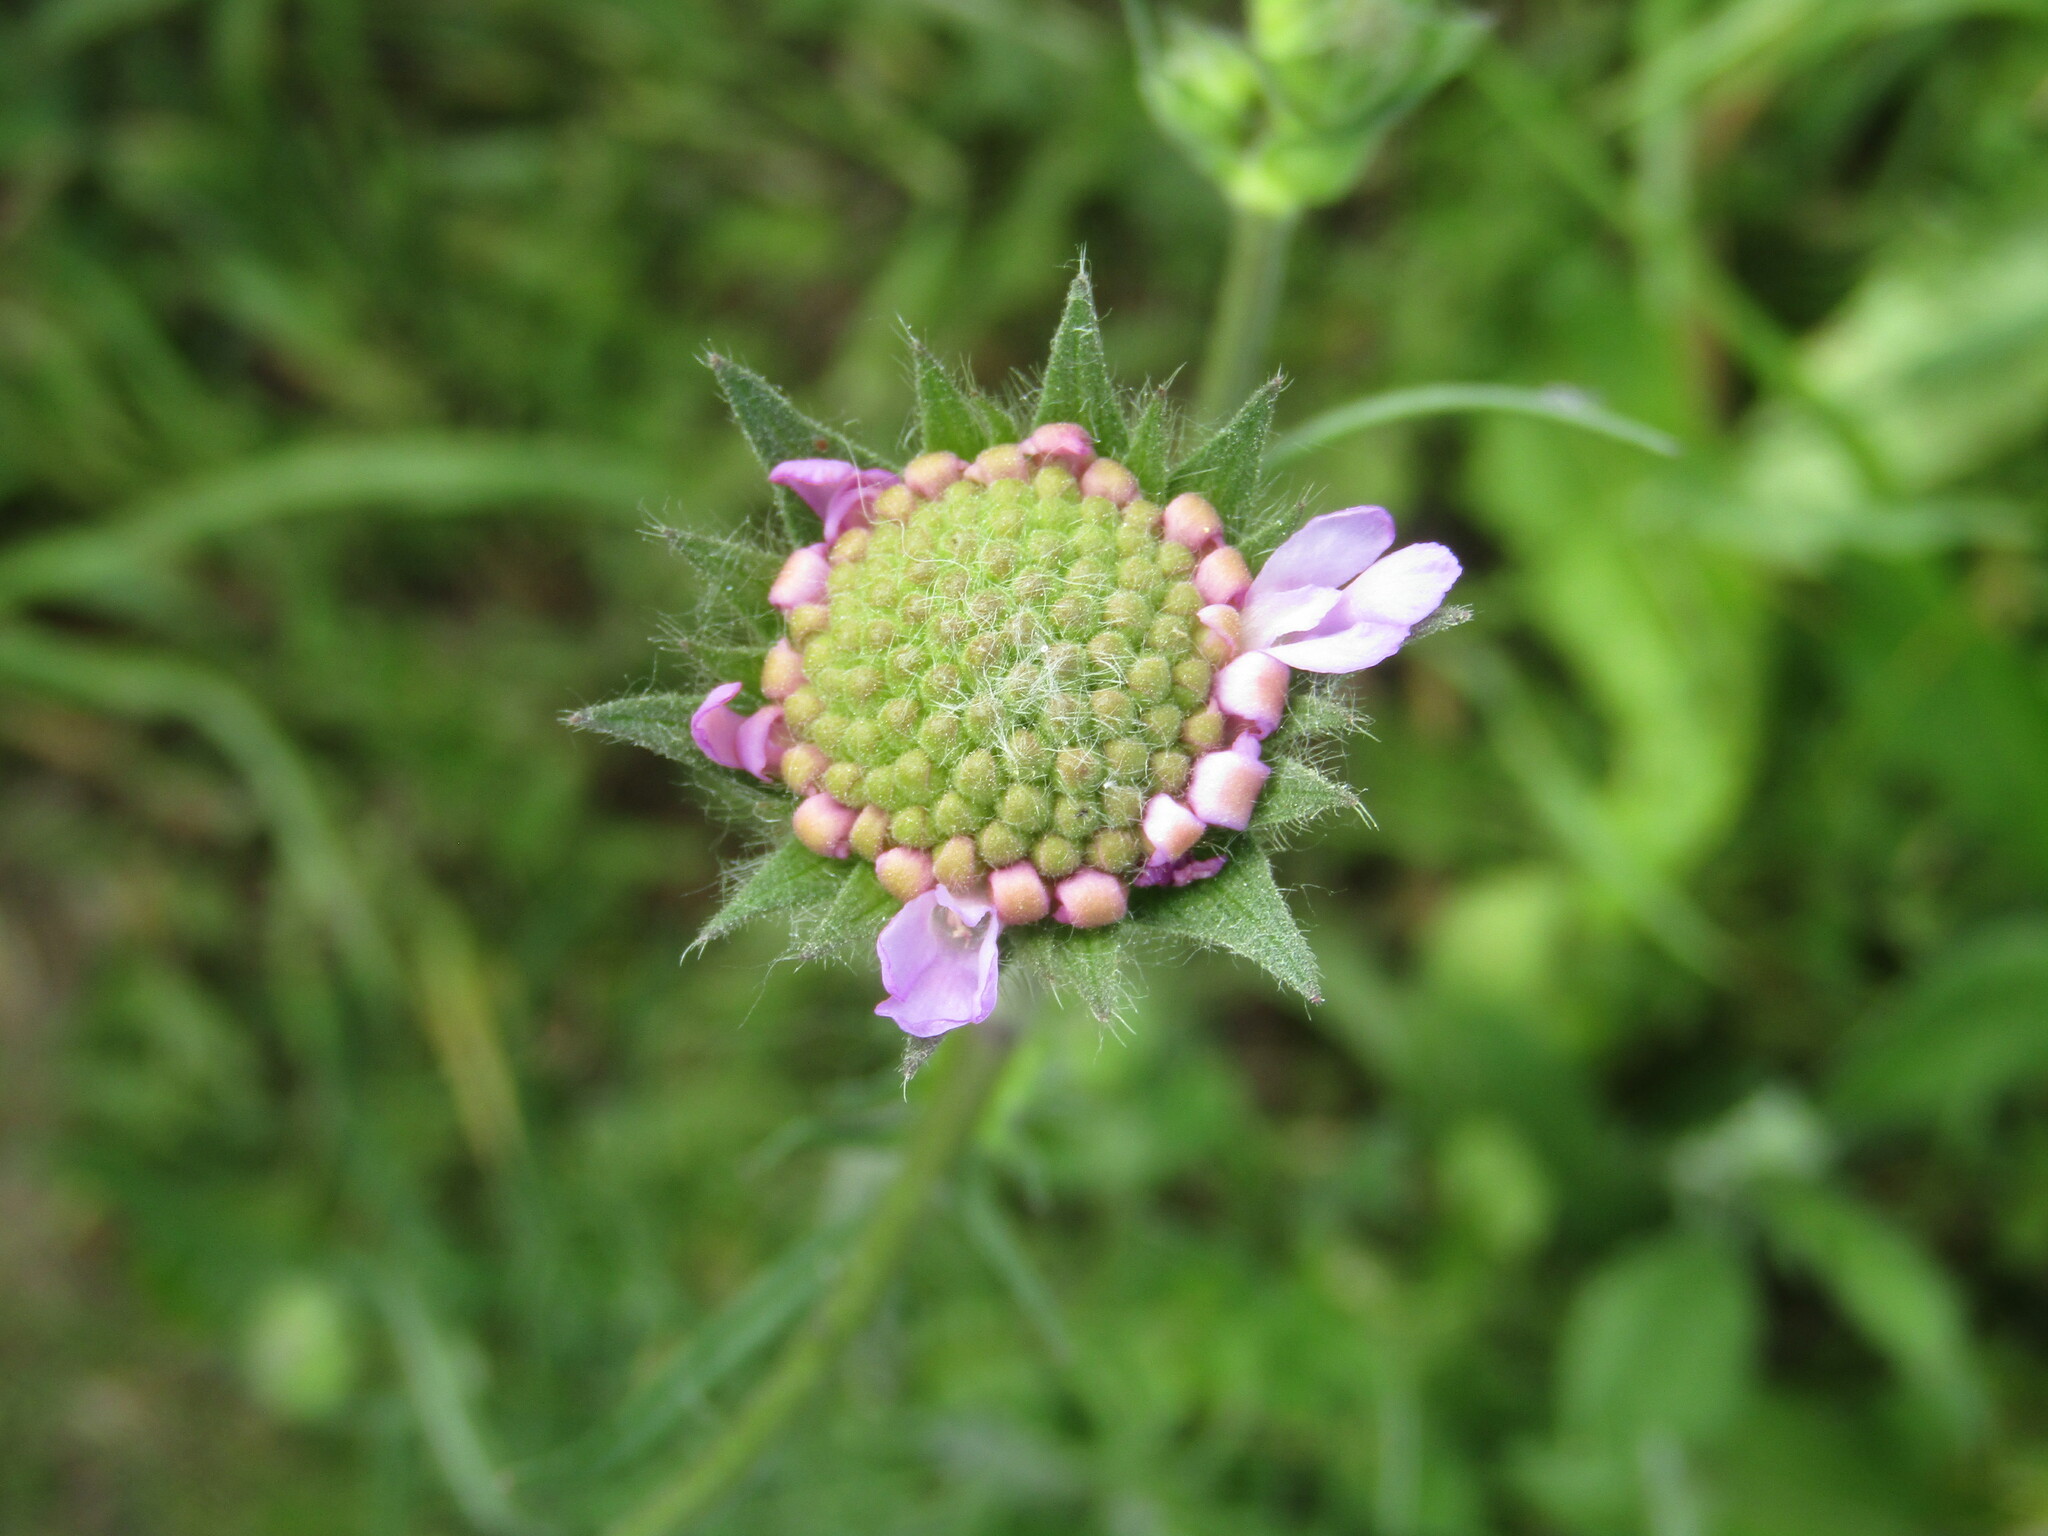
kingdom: Plantae
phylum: Tracheophyta
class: Magnoliopsida
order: Dipsacales
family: Caprifoliaceae
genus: Knautia
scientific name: Knautia arvensis
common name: Field scabiosa
